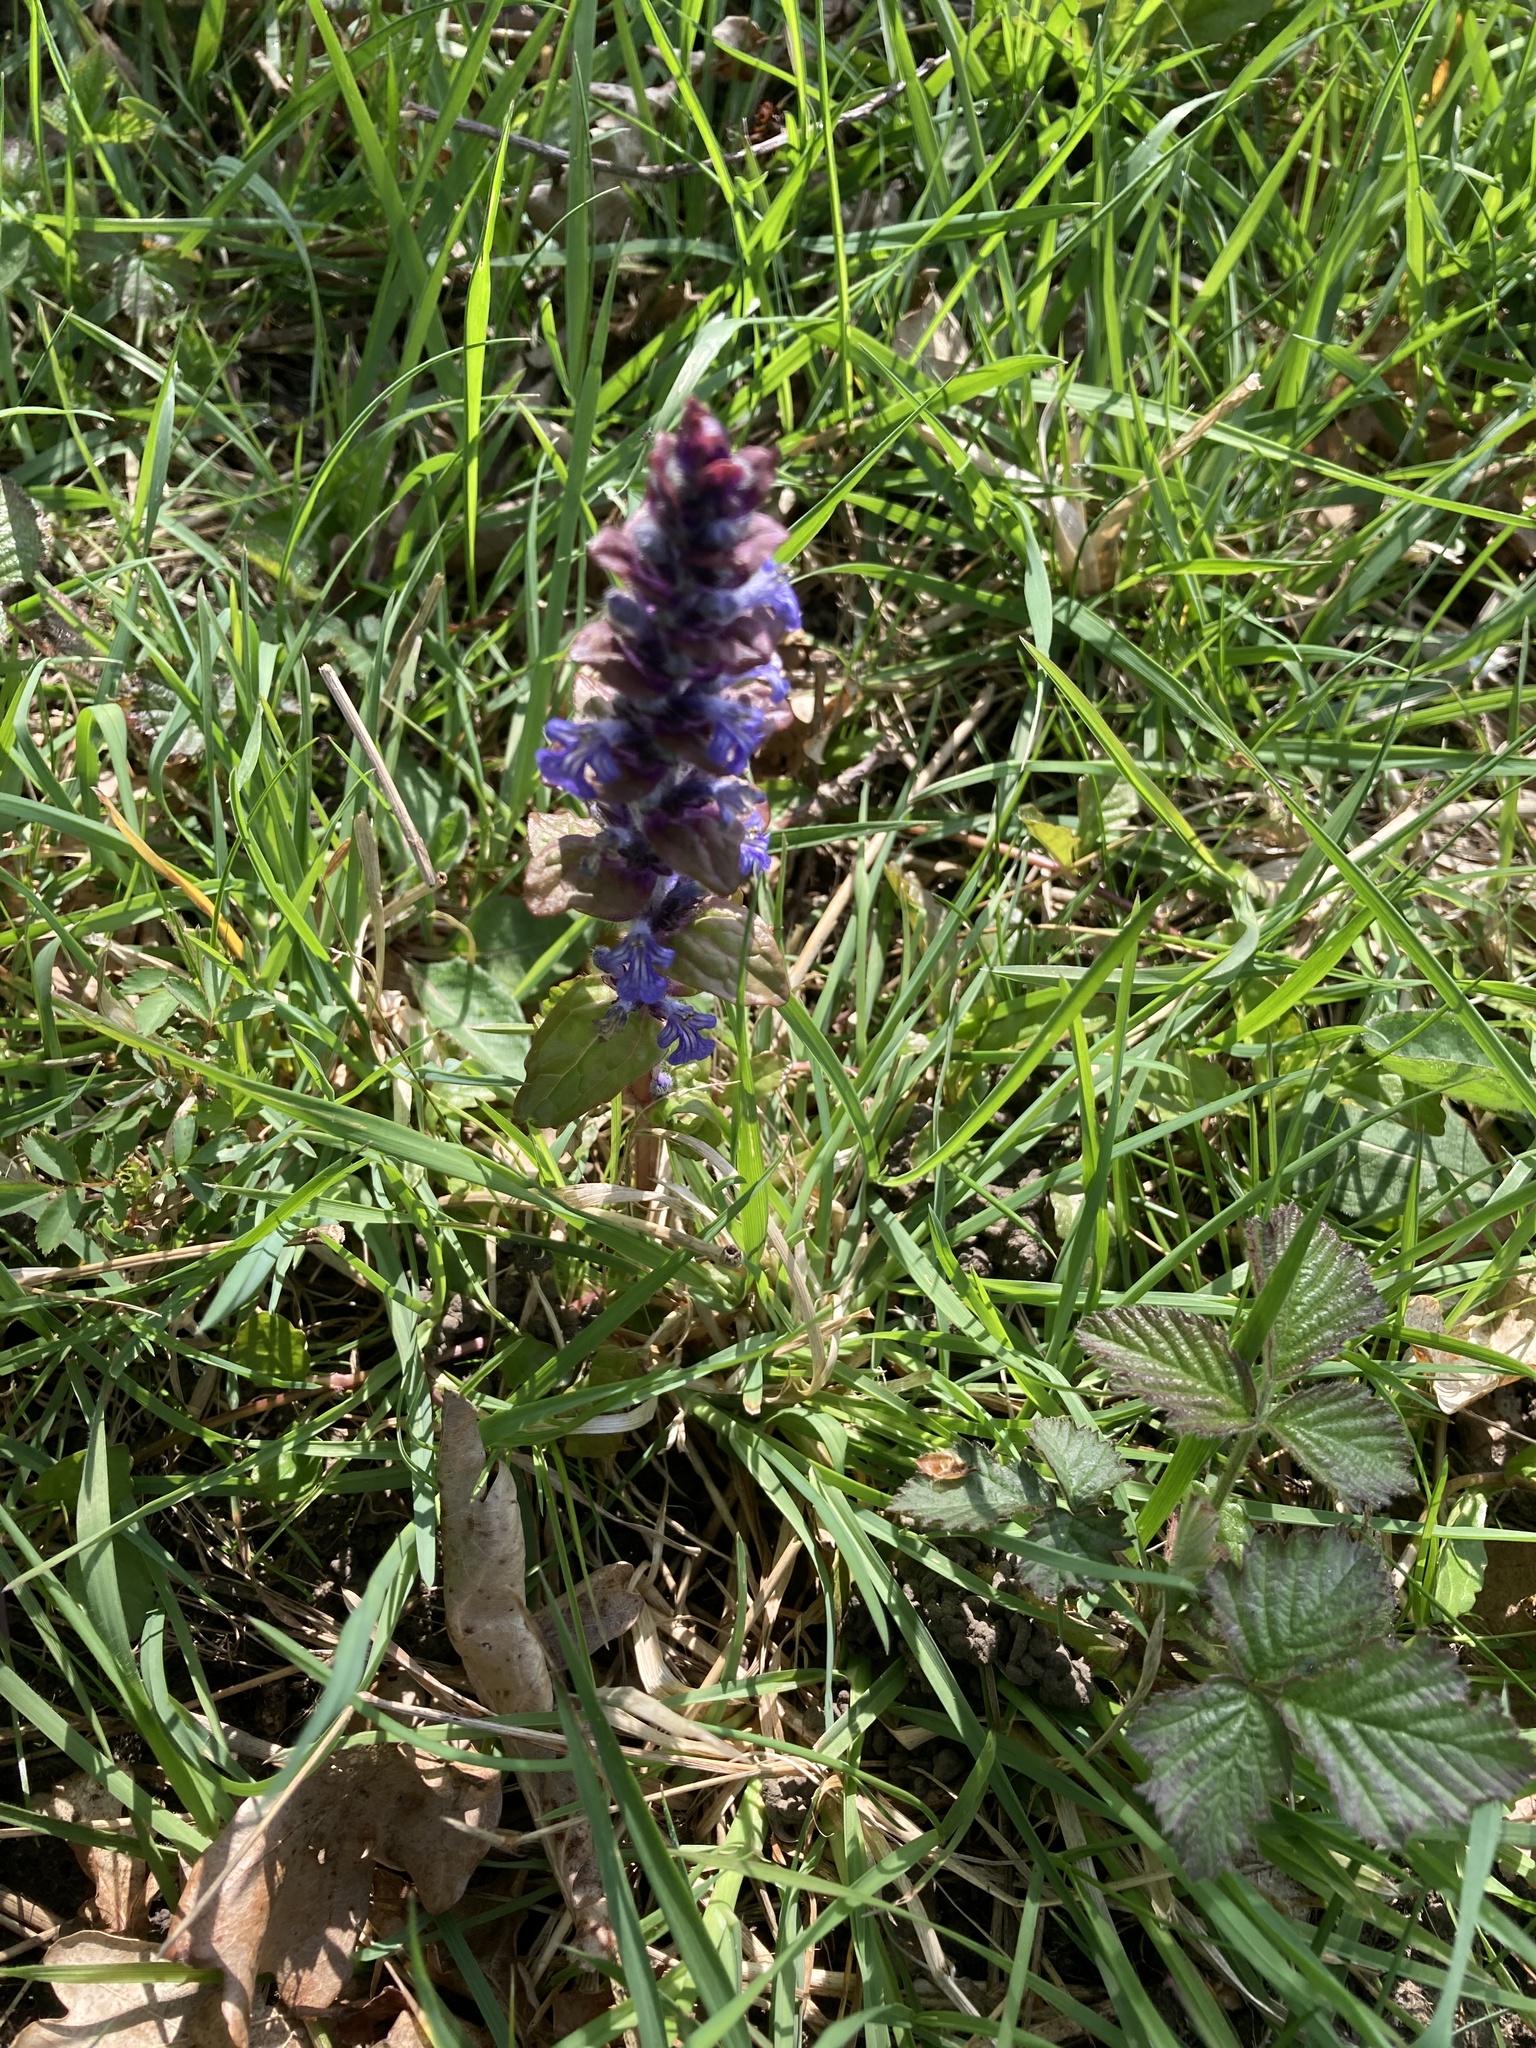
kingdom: Plantae
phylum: Tracheophyta
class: Magnoliopsida
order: Lamiales
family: Lamiaceae
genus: Ajuga
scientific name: Ajuga reptans
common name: Bugle
